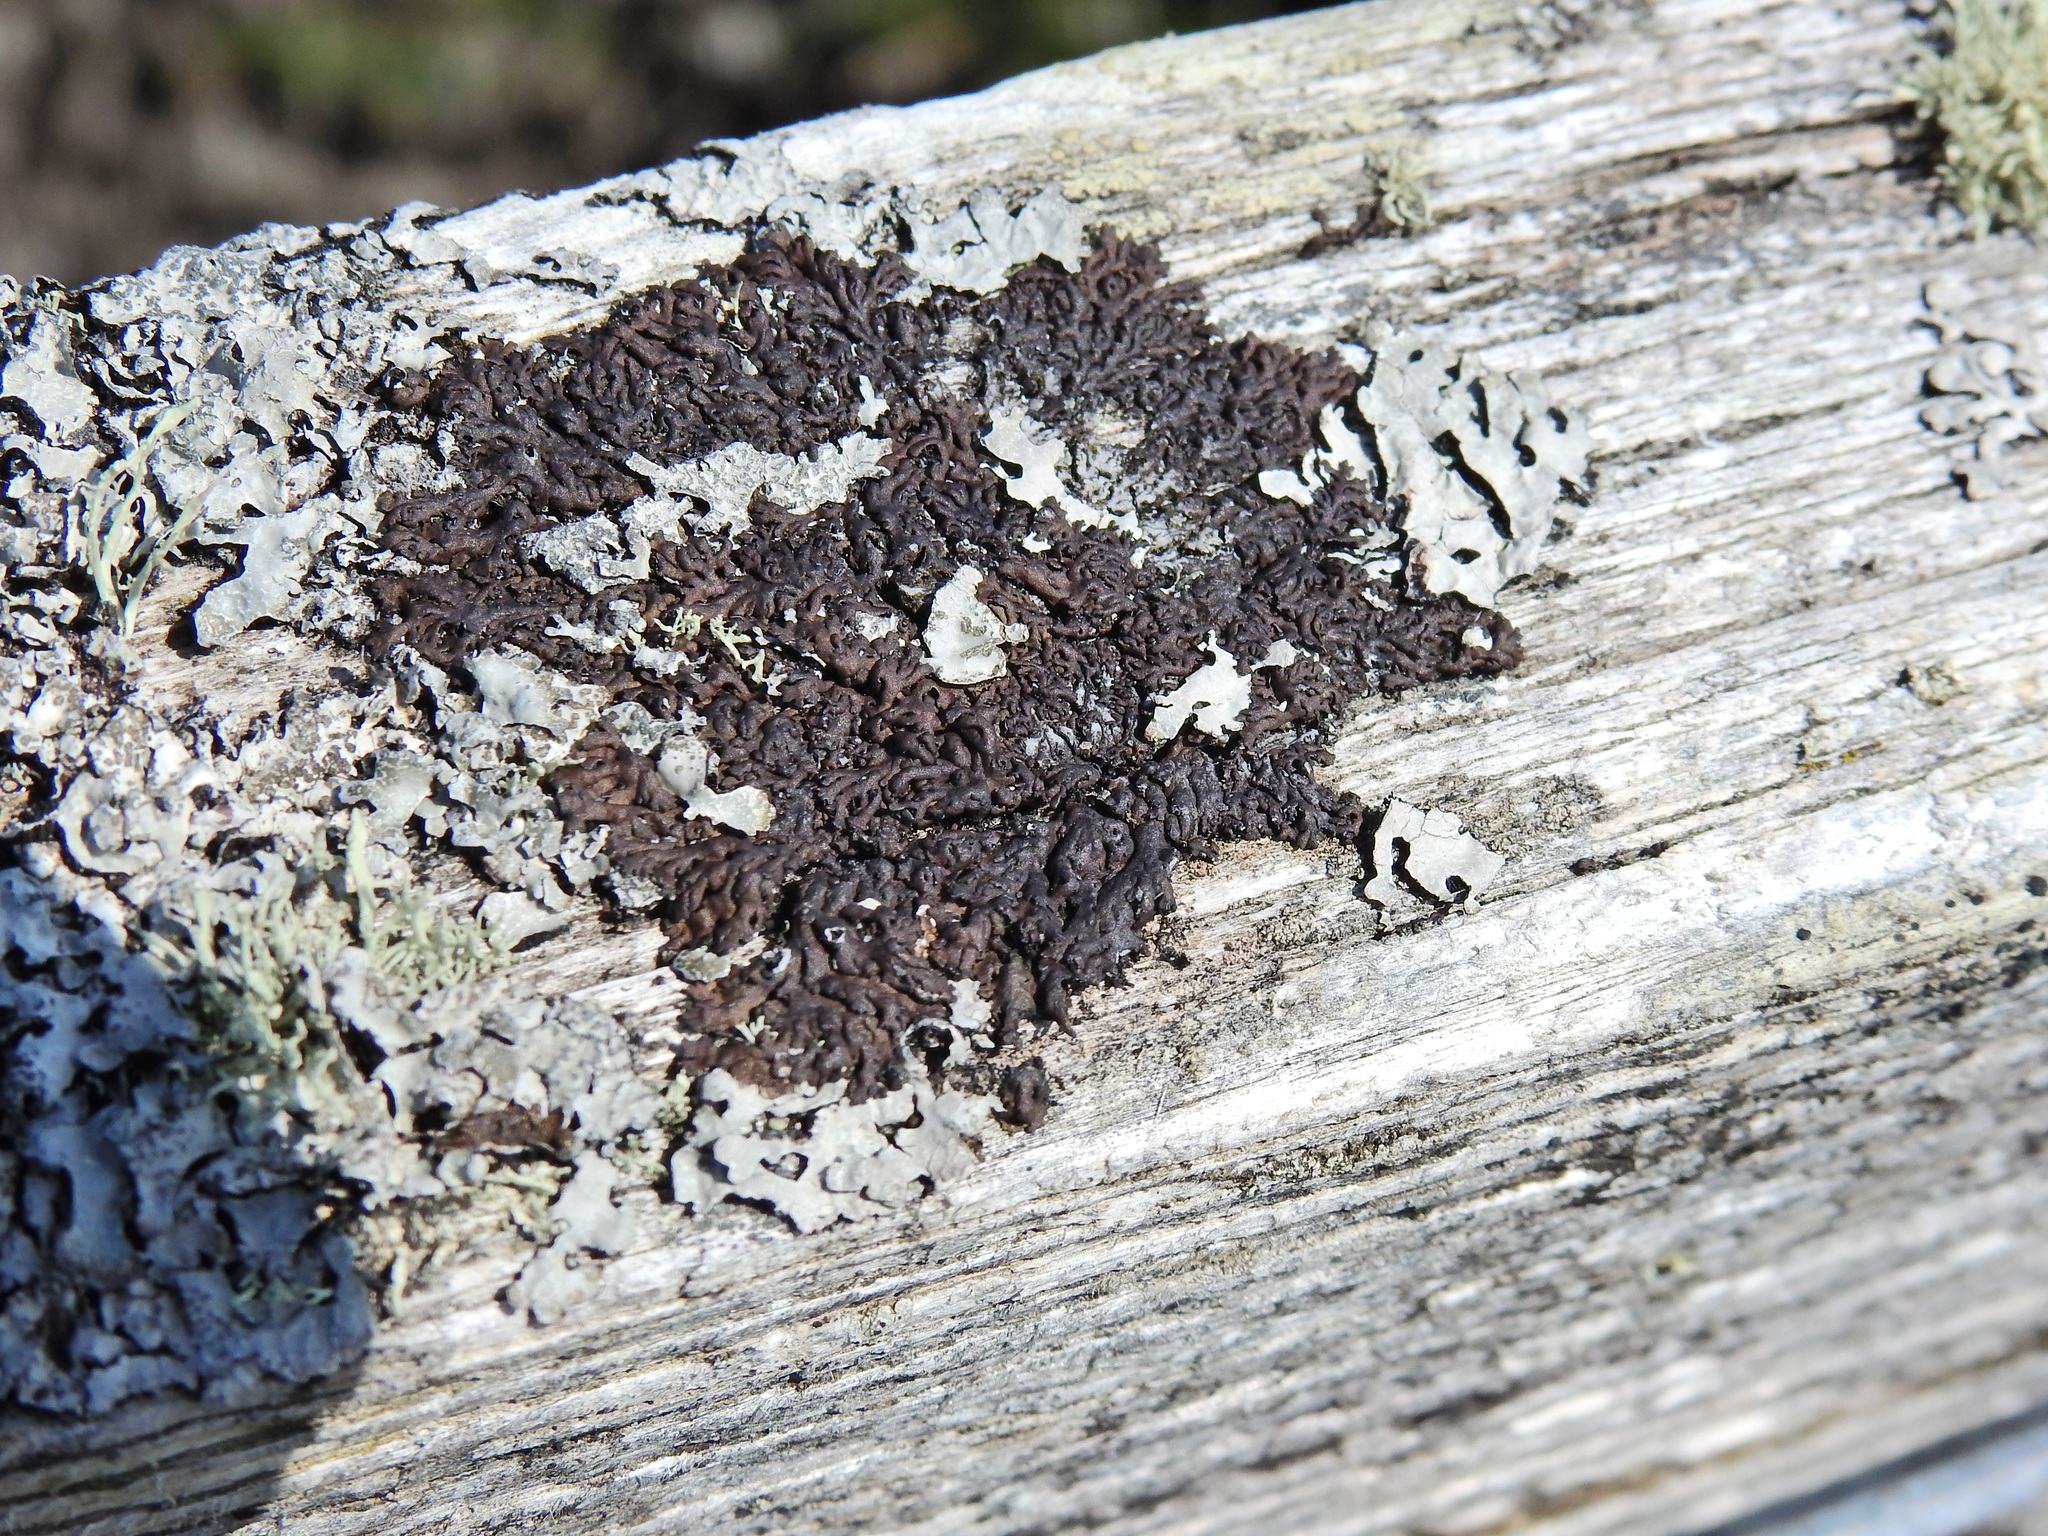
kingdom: Fungi
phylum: Ascomycota
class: Lecanoromycetes
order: Caliciales
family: Physciaceae
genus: Kurokawia
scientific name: Kurokawia runcinata
